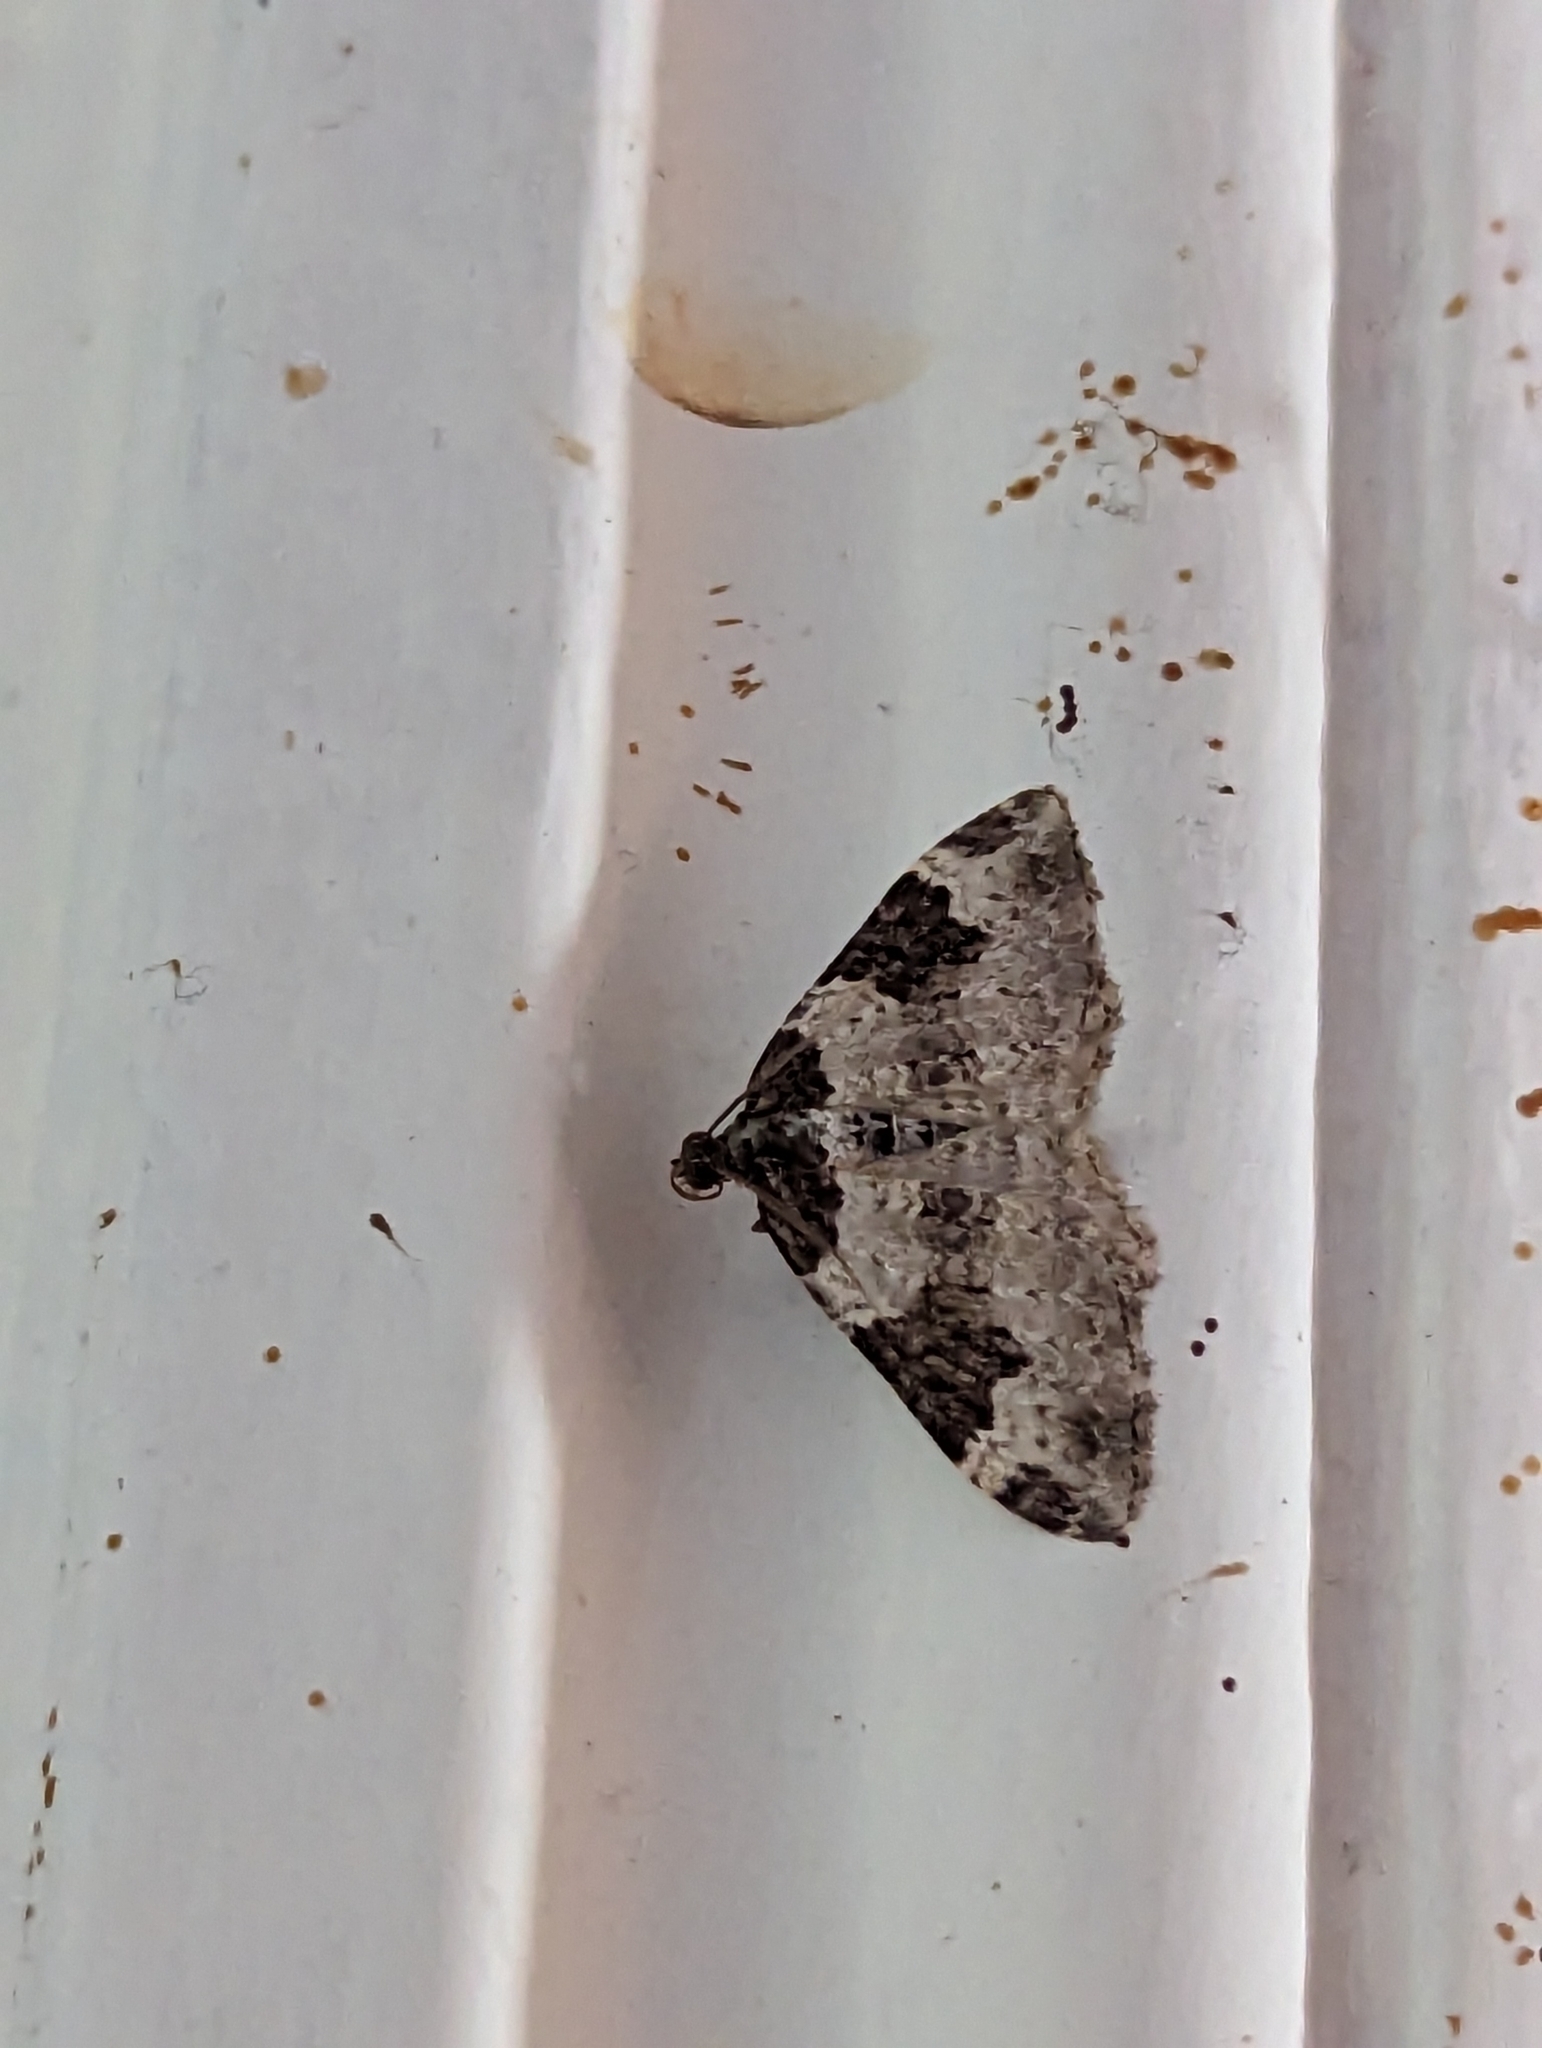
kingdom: Animalia
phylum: Arthropoda
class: Insecta
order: Lepidoptera
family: Geometridae
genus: Xanthorhoe
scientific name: Xanthorhoe fluctuata
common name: Garden carpet
